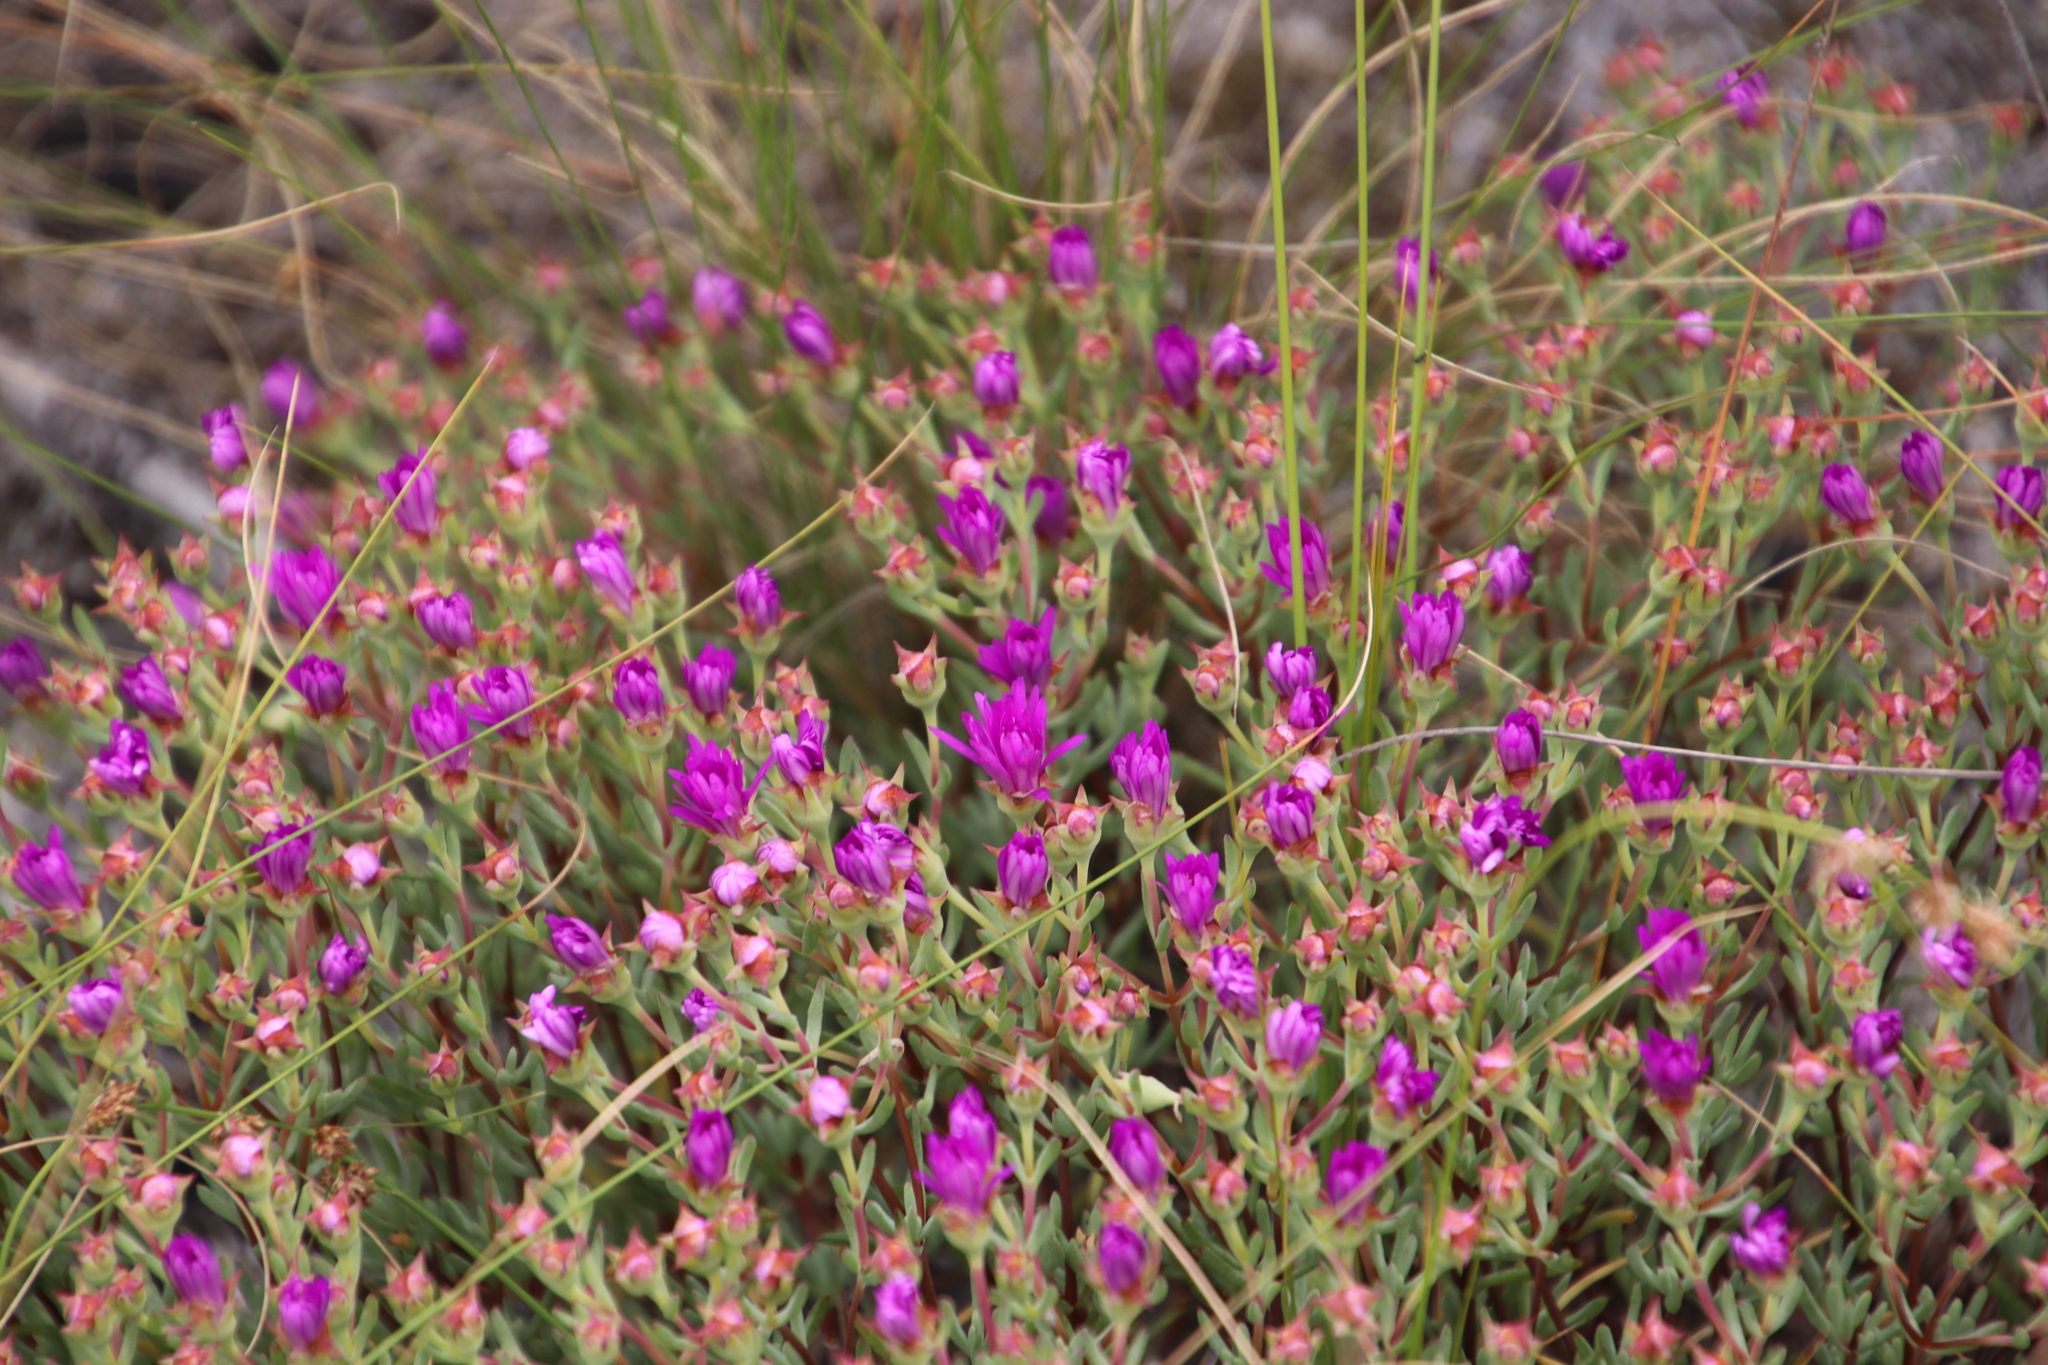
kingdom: Plantae
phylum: Tracheophyta
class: Magnoliopsida
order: Caryophyllales
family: Aizoaceae
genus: Lampranthus
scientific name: Lampranthus emarginatus
